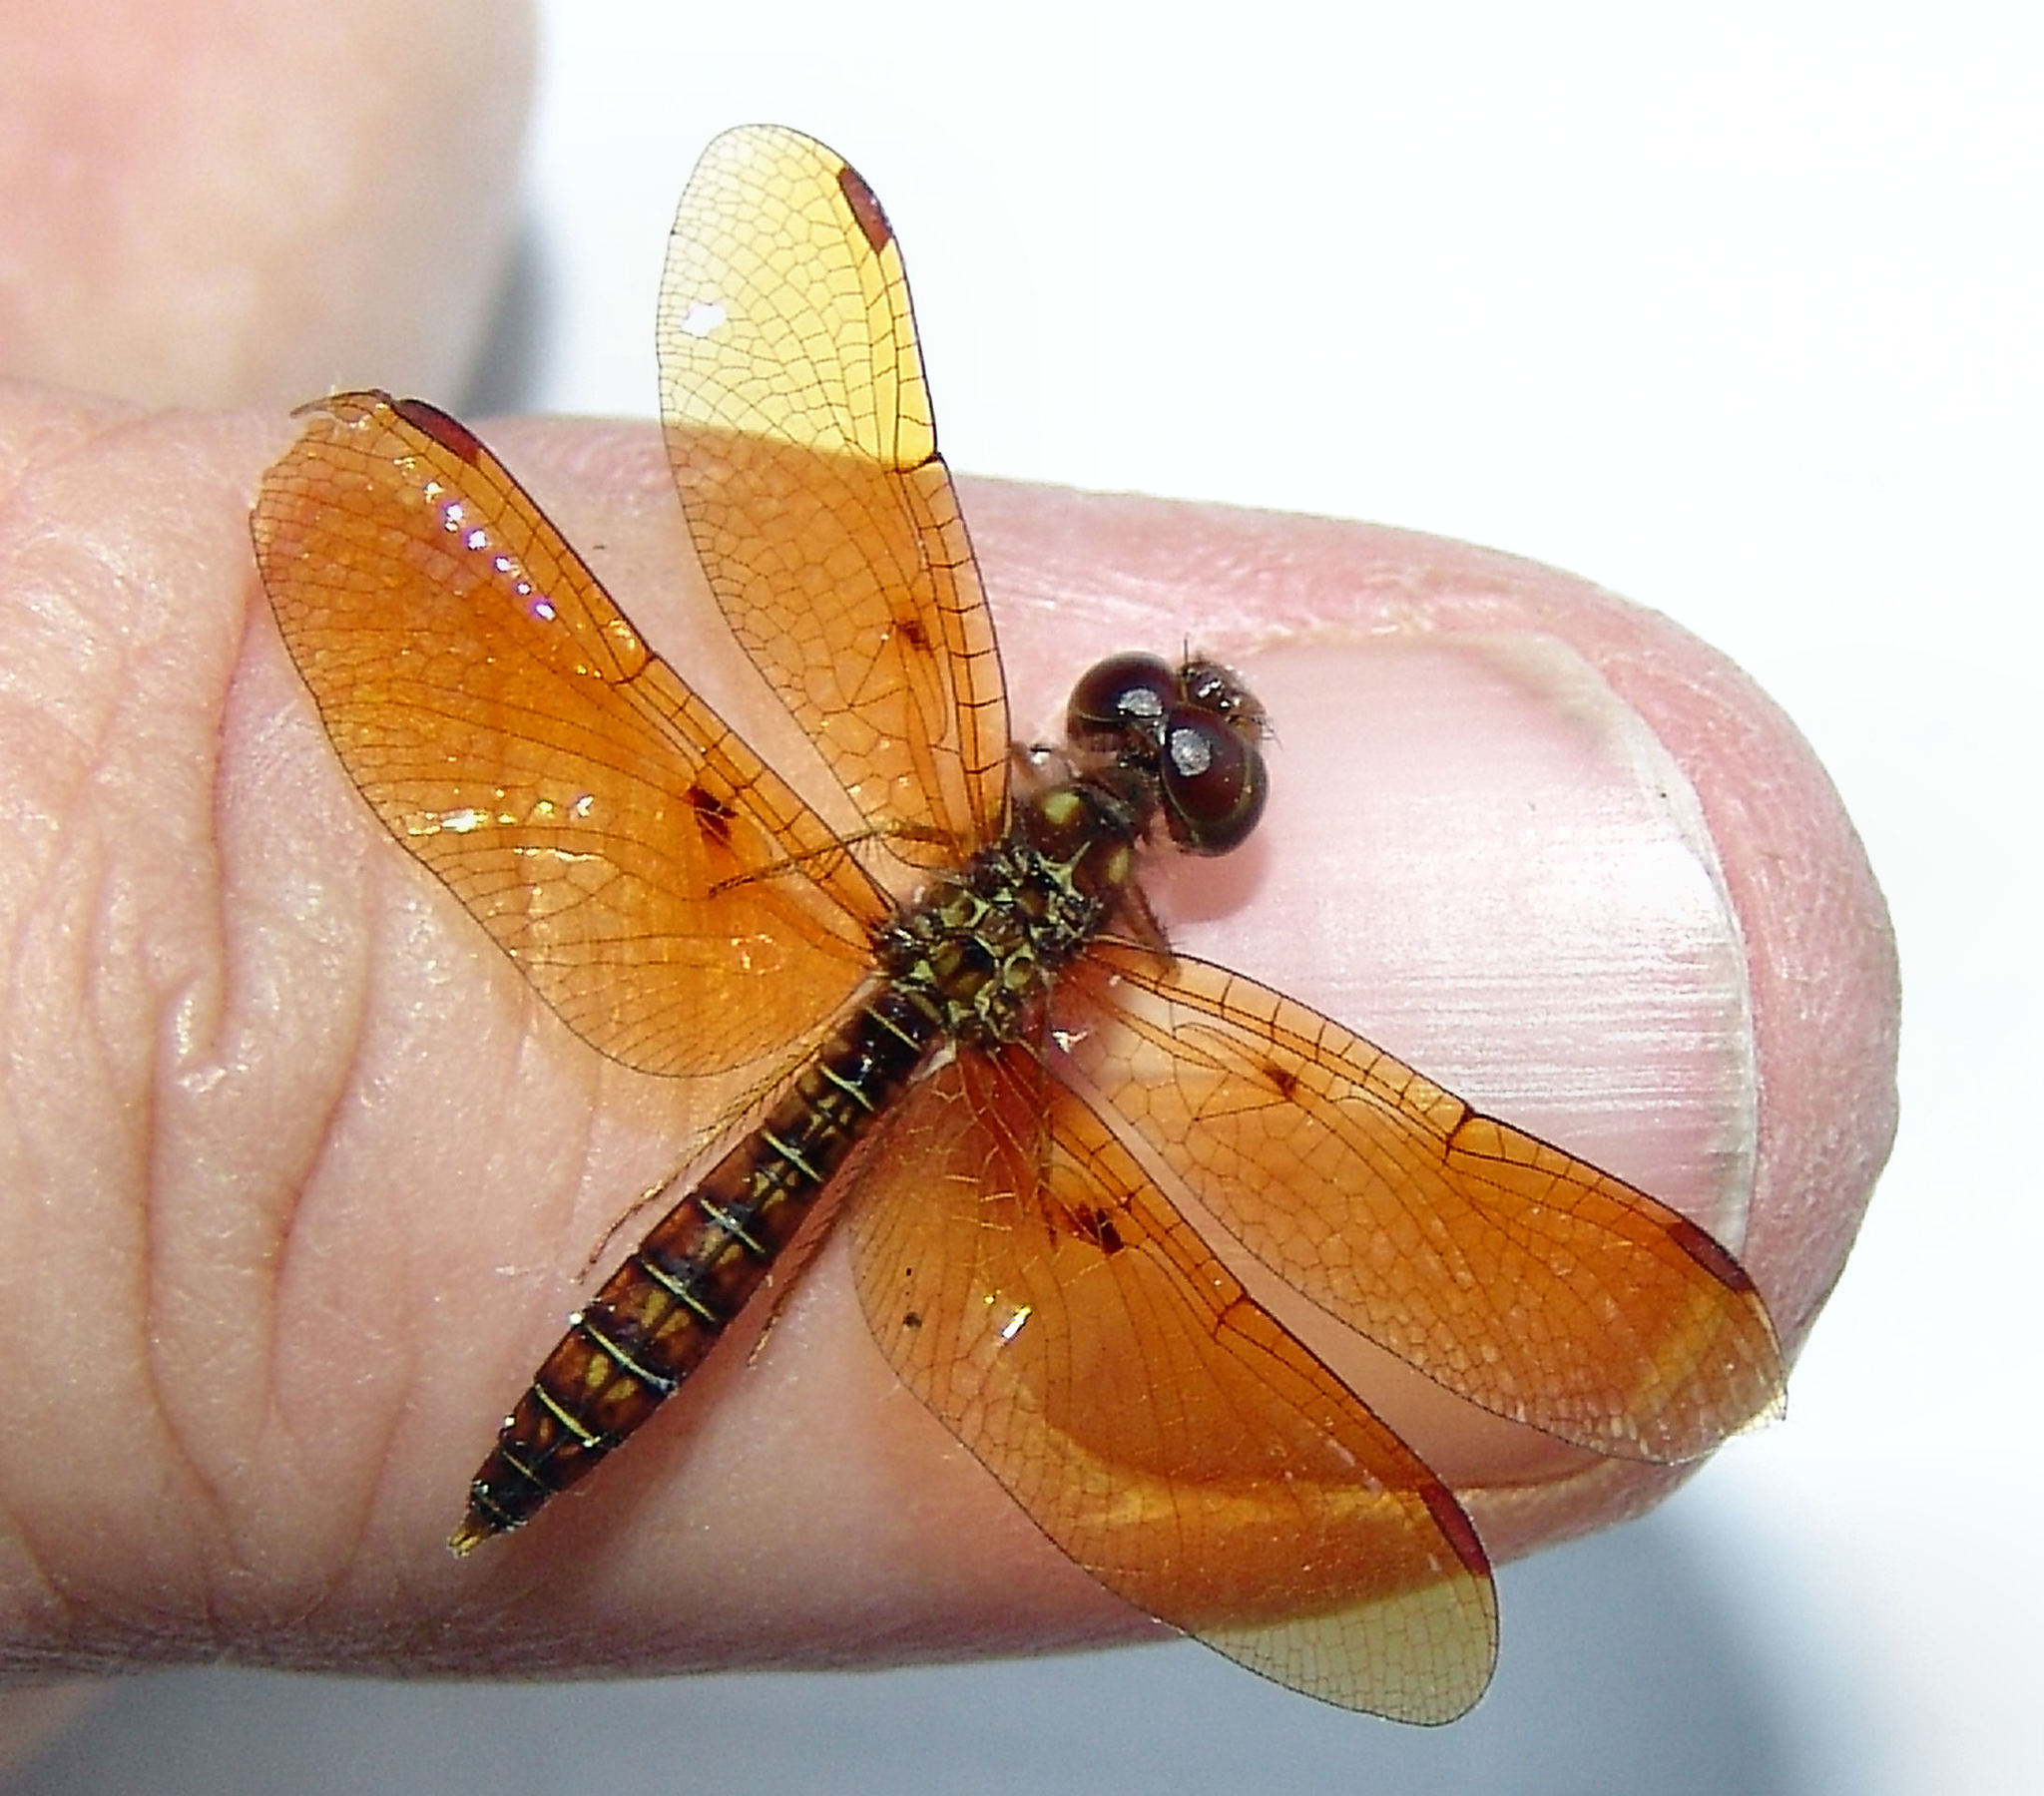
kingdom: Animalia
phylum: Arthropoda
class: Insecta
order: Odonata
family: Libellulidae
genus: Perithemis
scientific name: Perithemis tenera
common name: Eastern amberwing
